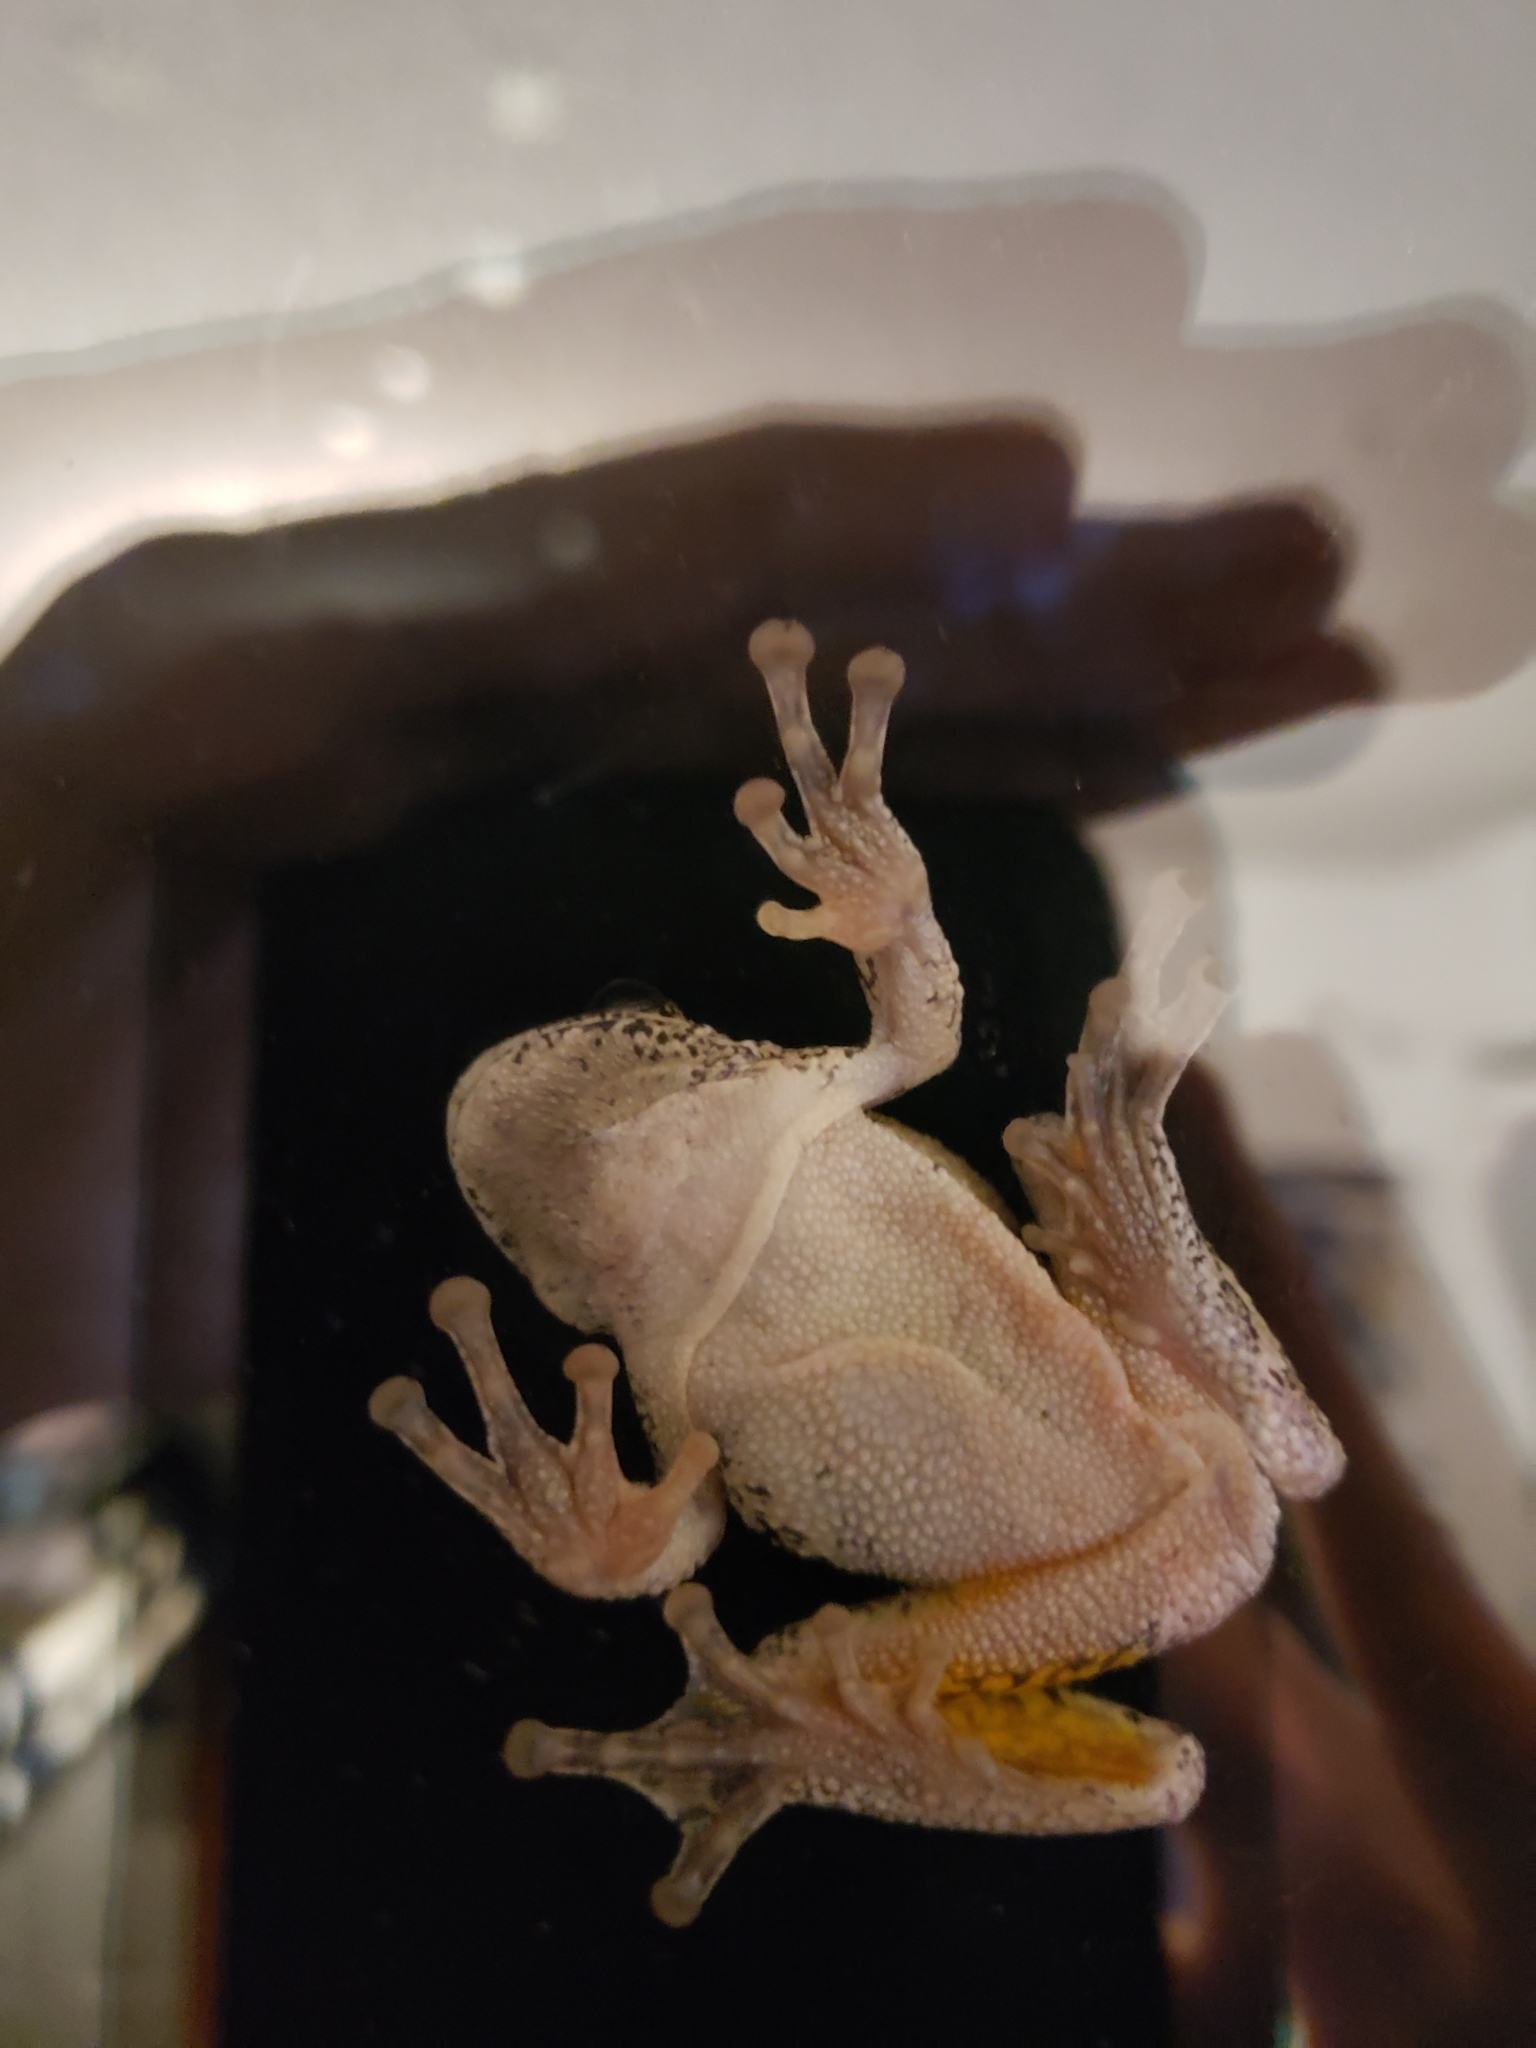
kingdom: Animalia
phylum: Chordata
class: Amphibia
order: Anura
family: Hylidae
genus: Dryophytes
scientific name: Dryophytes versicolor
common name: Gray treefrog
